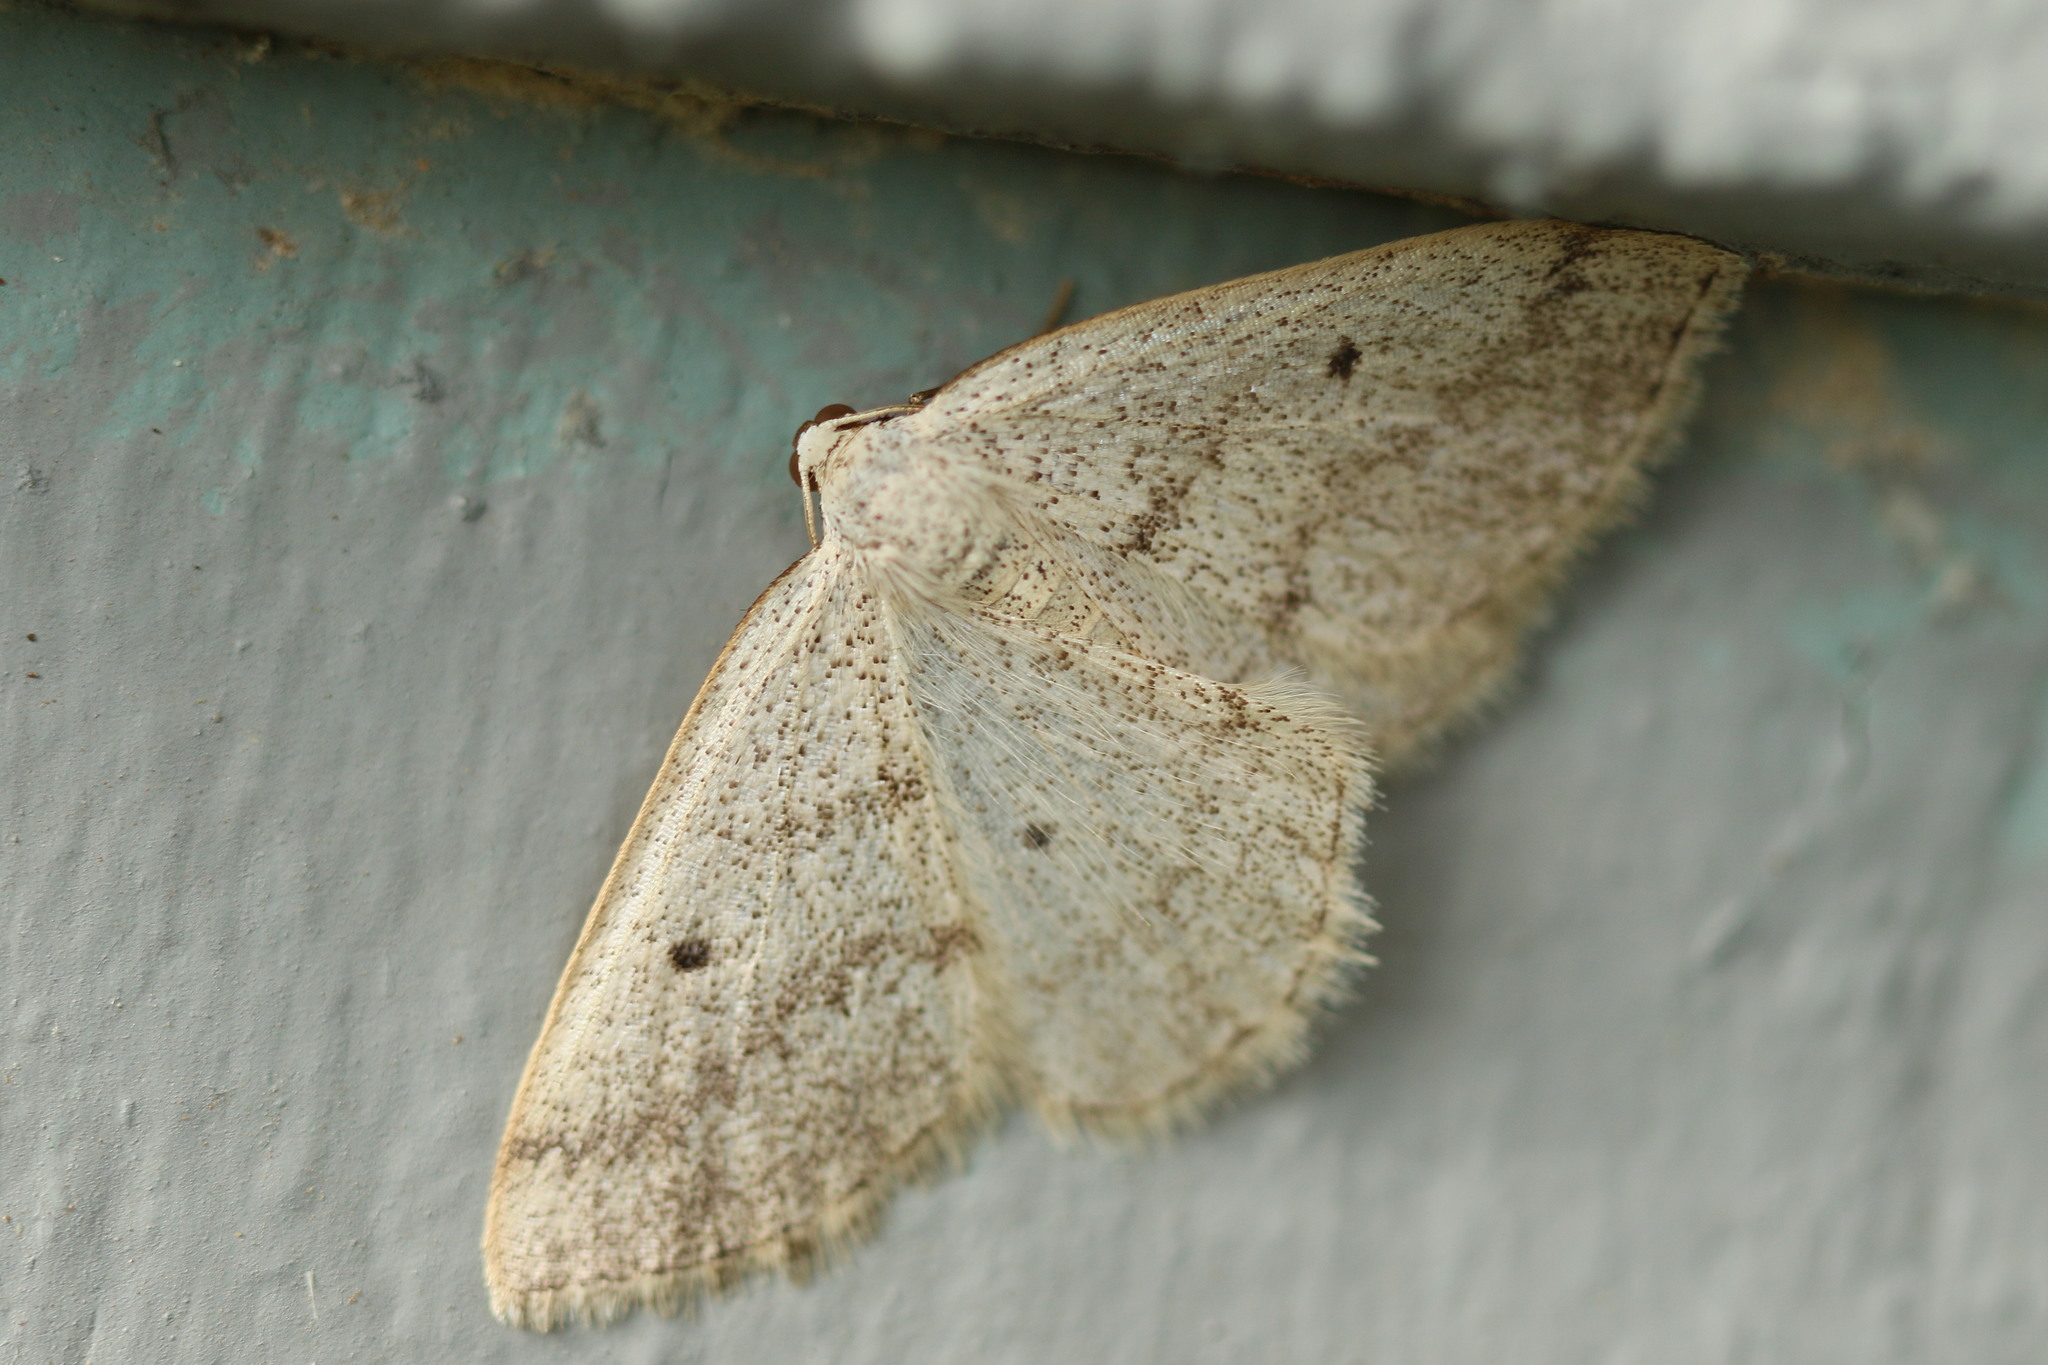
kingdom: Animalia
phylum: Arthropoda
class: Insecta
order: Lepidoptera
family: Geometridae
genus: Lomographa
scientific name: Lomographa glomeraria
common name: Gray spring moth
